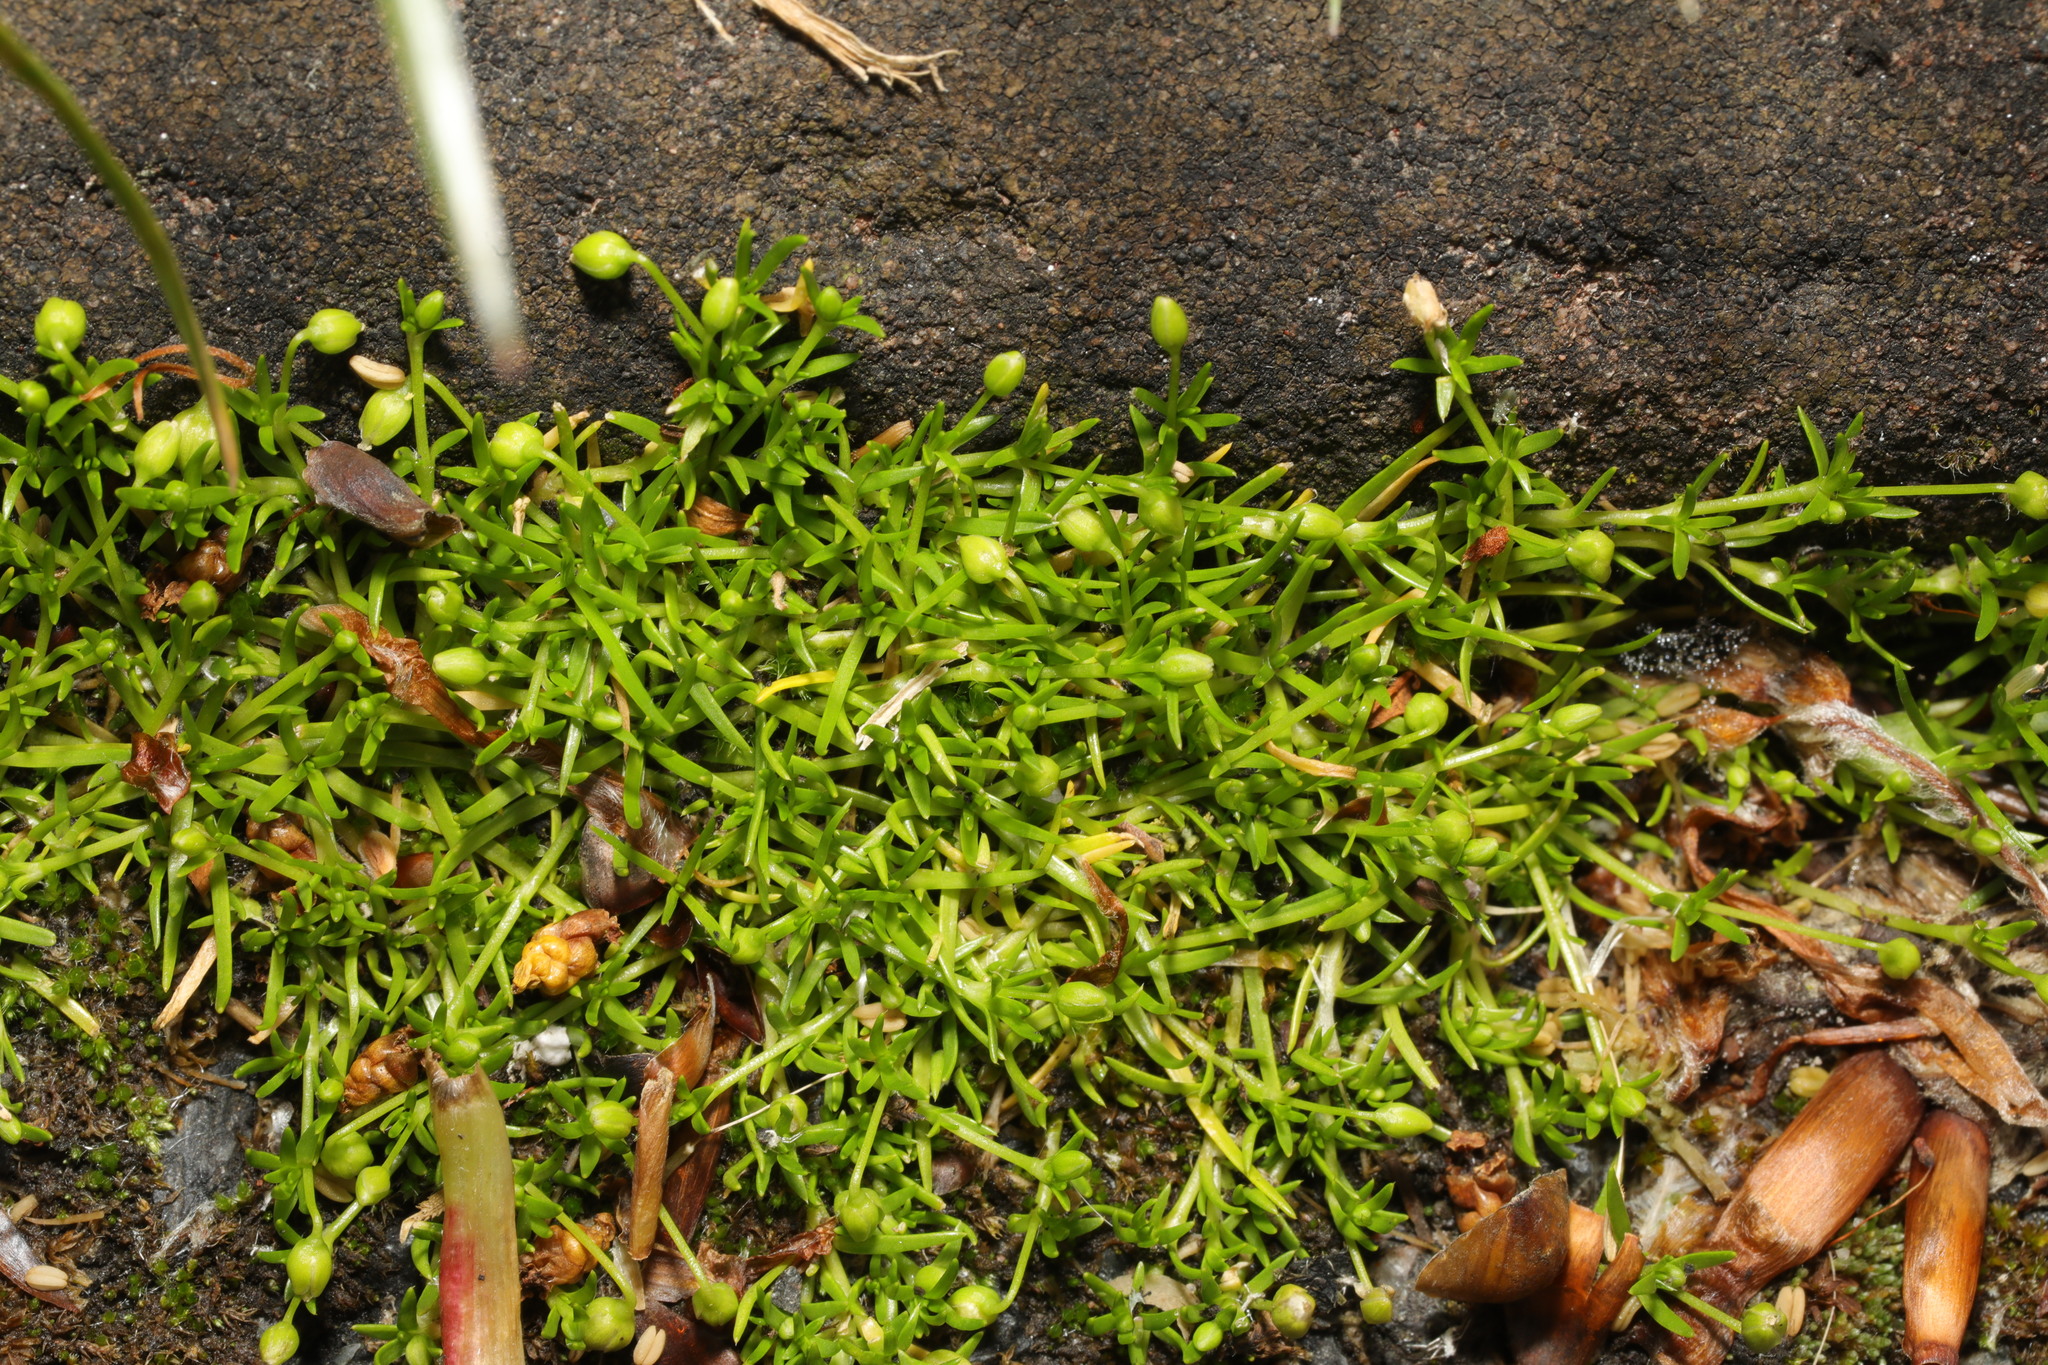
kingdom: Plantae
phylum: Tracheophyta
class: Magnoliopsida
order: Caryophyllales
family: Caryophyllaceae
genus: Sagina
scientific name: Sagina procumbens
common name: Procumbent pearlwort
